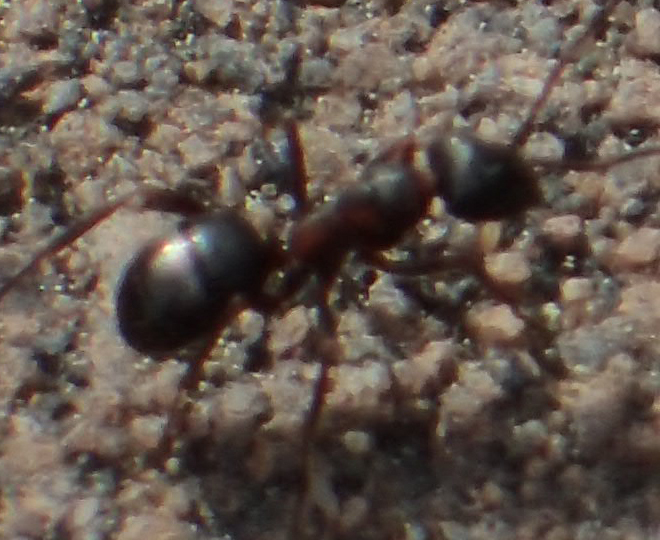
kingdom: Animalia
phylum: Arthropoda
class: Insecta
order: Hymenoptera
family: Formicidae
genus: Formica
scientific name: Formica neorufibarbis
